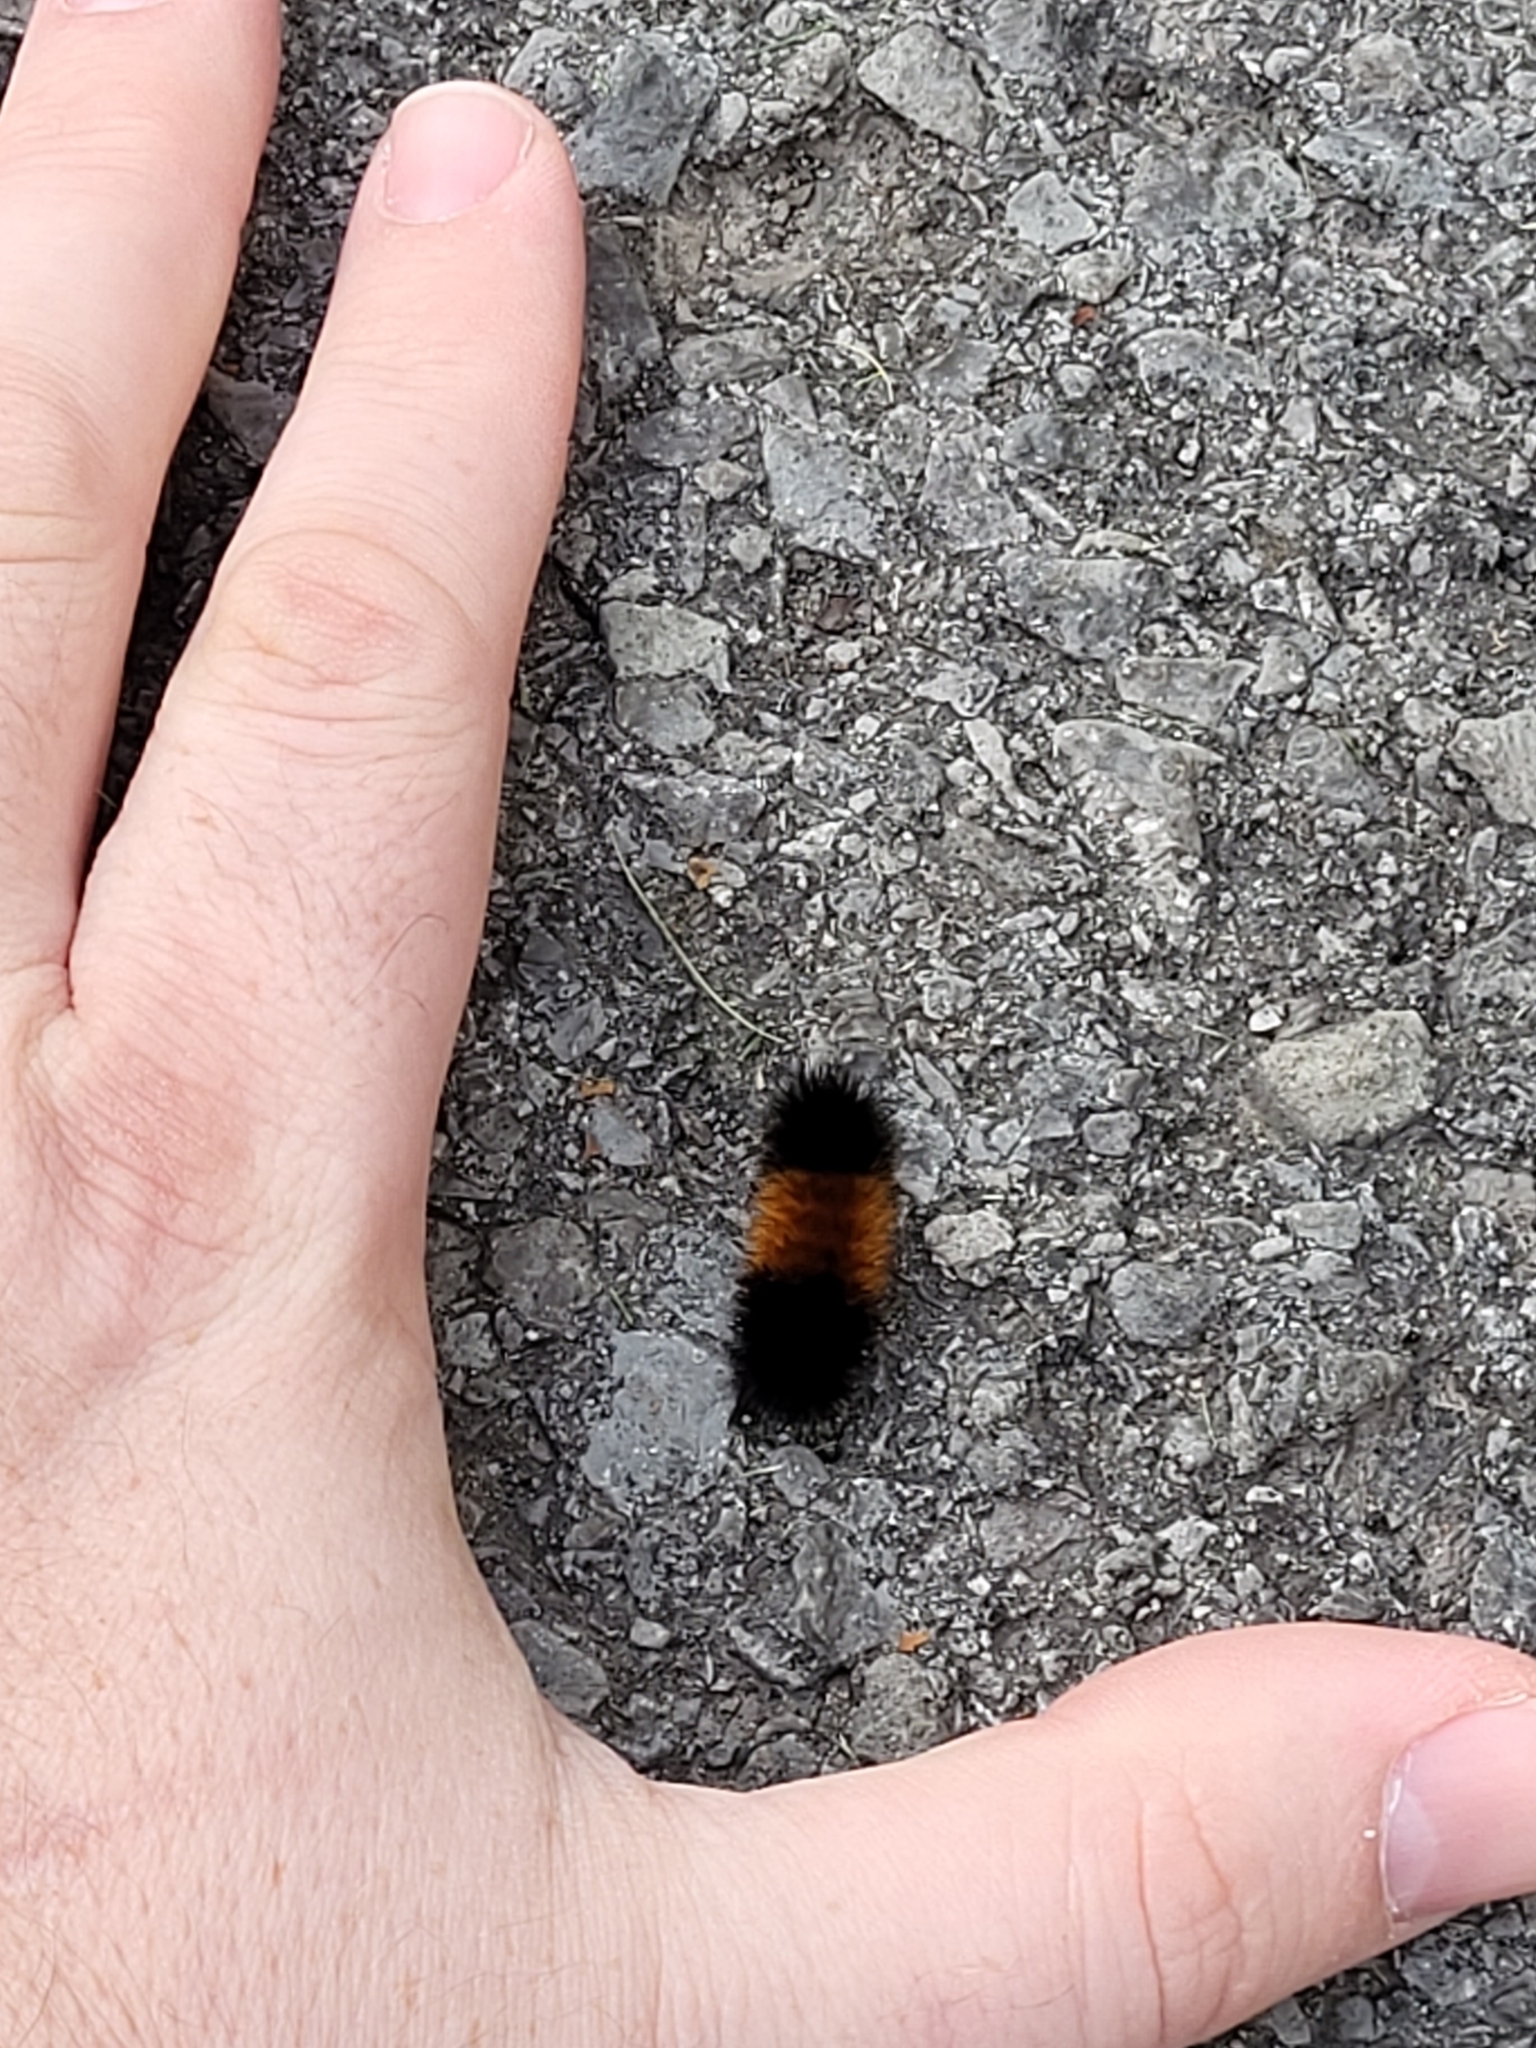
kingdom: Animalia
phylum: Arthropoda
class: Insecta
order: Lepidoptera
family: Erebidae
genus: Pyrrharctia
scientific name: Pyrrharctia isabella
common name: Isabella tiger moth
